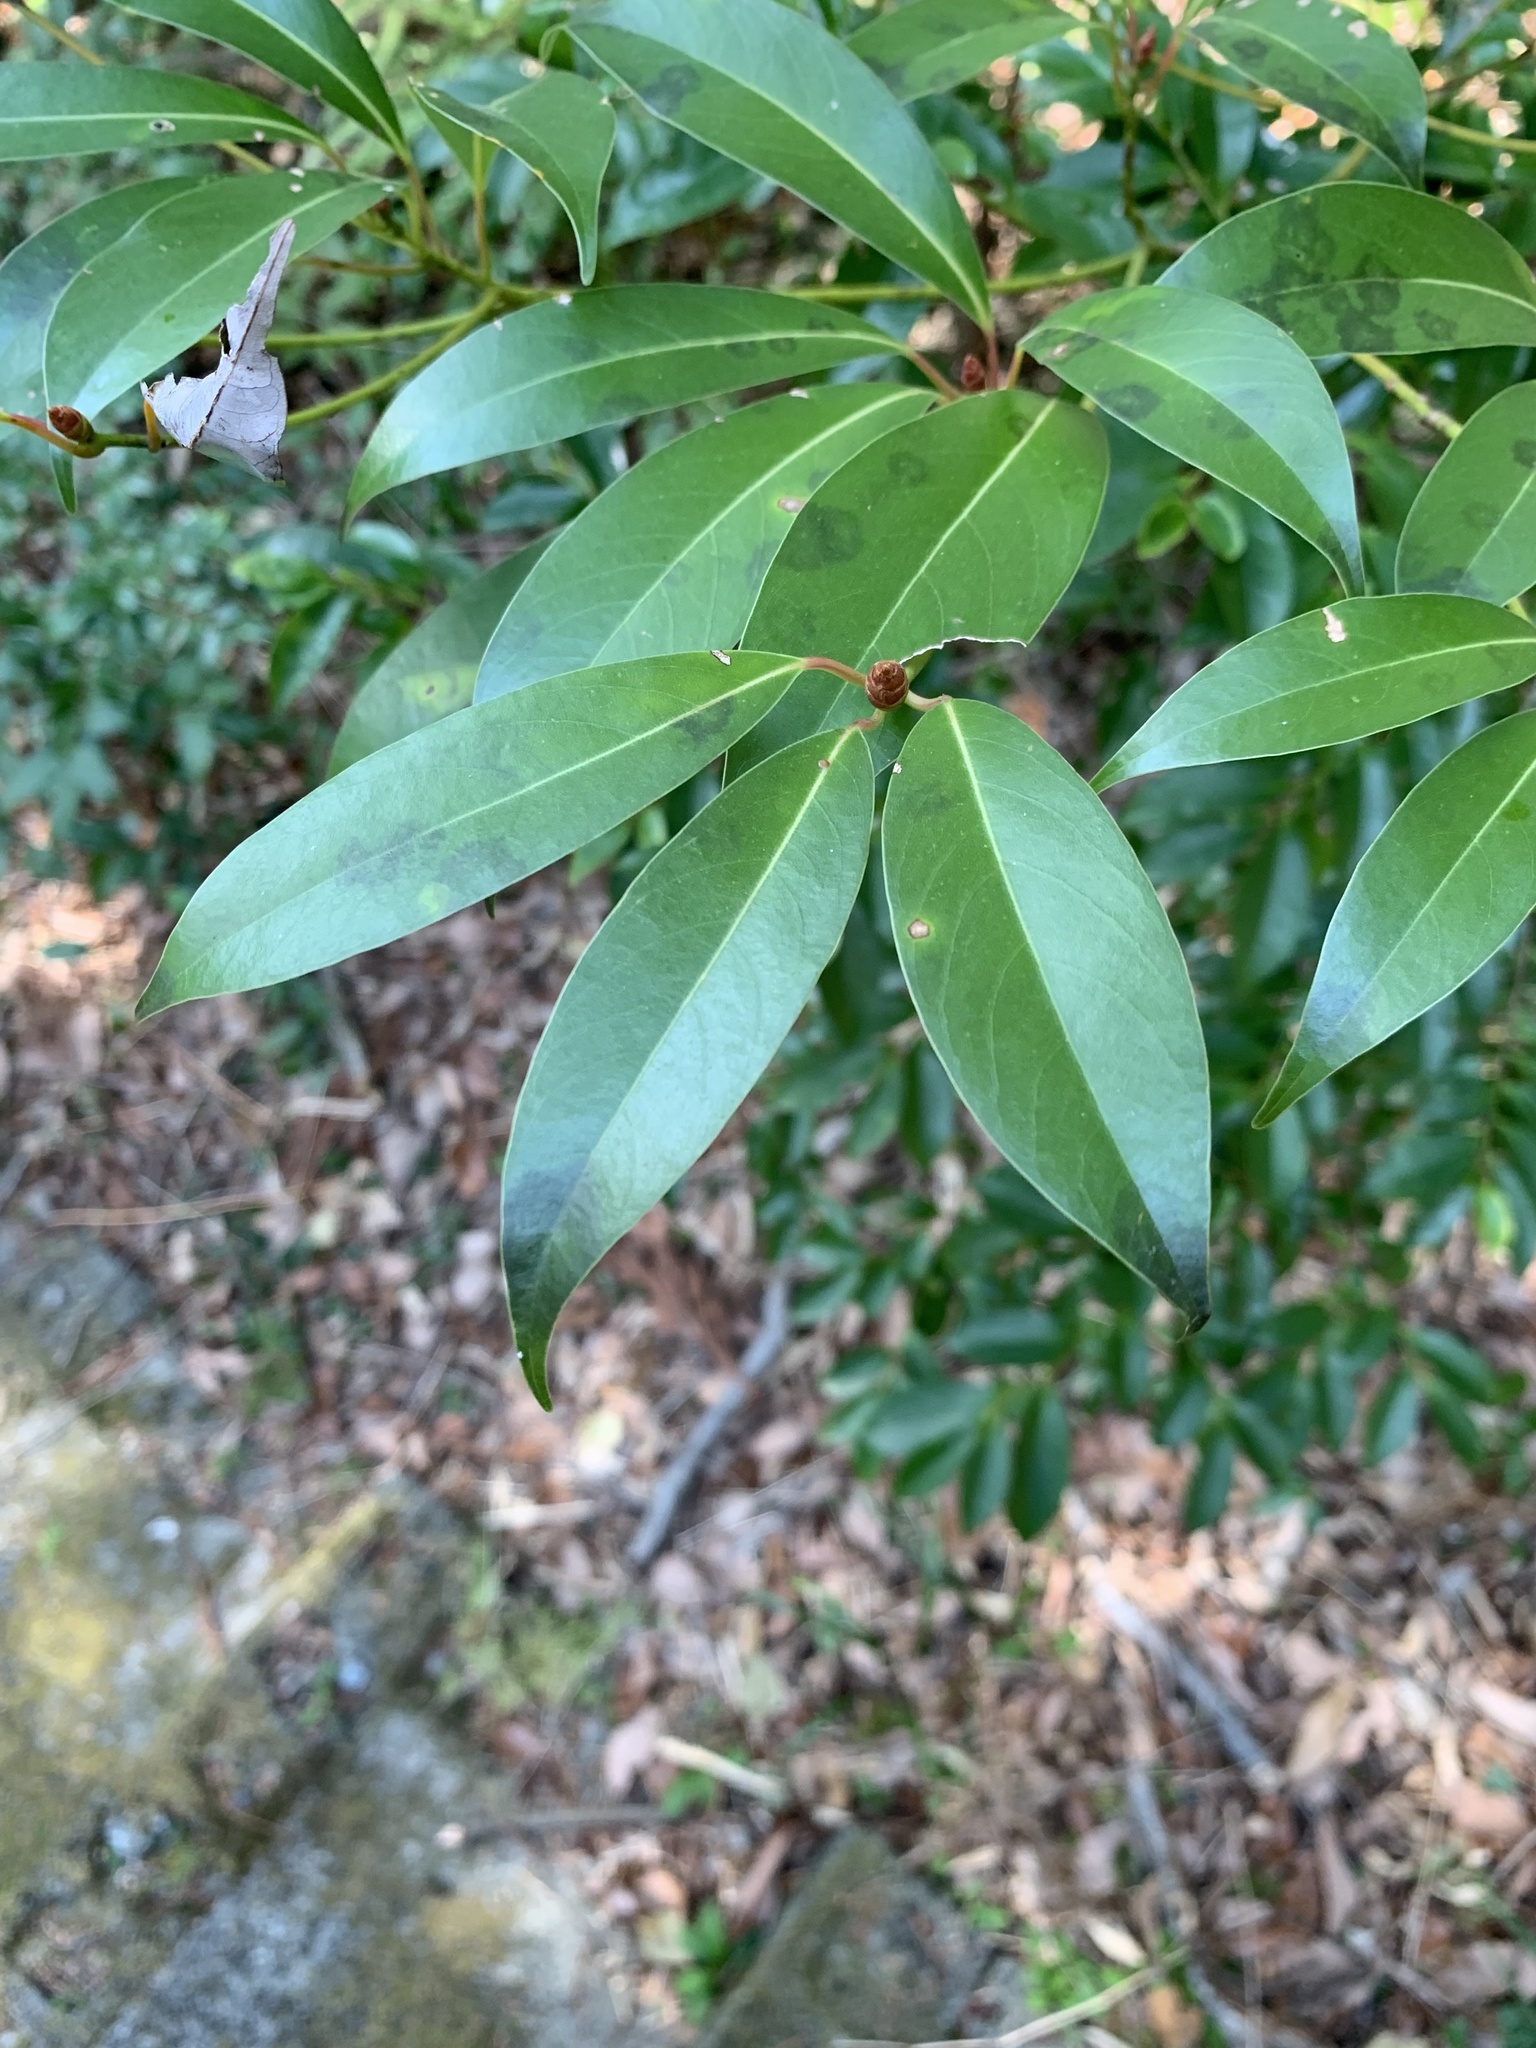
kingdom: Plantae
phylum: Tracheophyta
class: Magnoliopsida
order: Laurales
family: Lauraceae
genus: Machilus
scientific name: Machilus thunbergii
